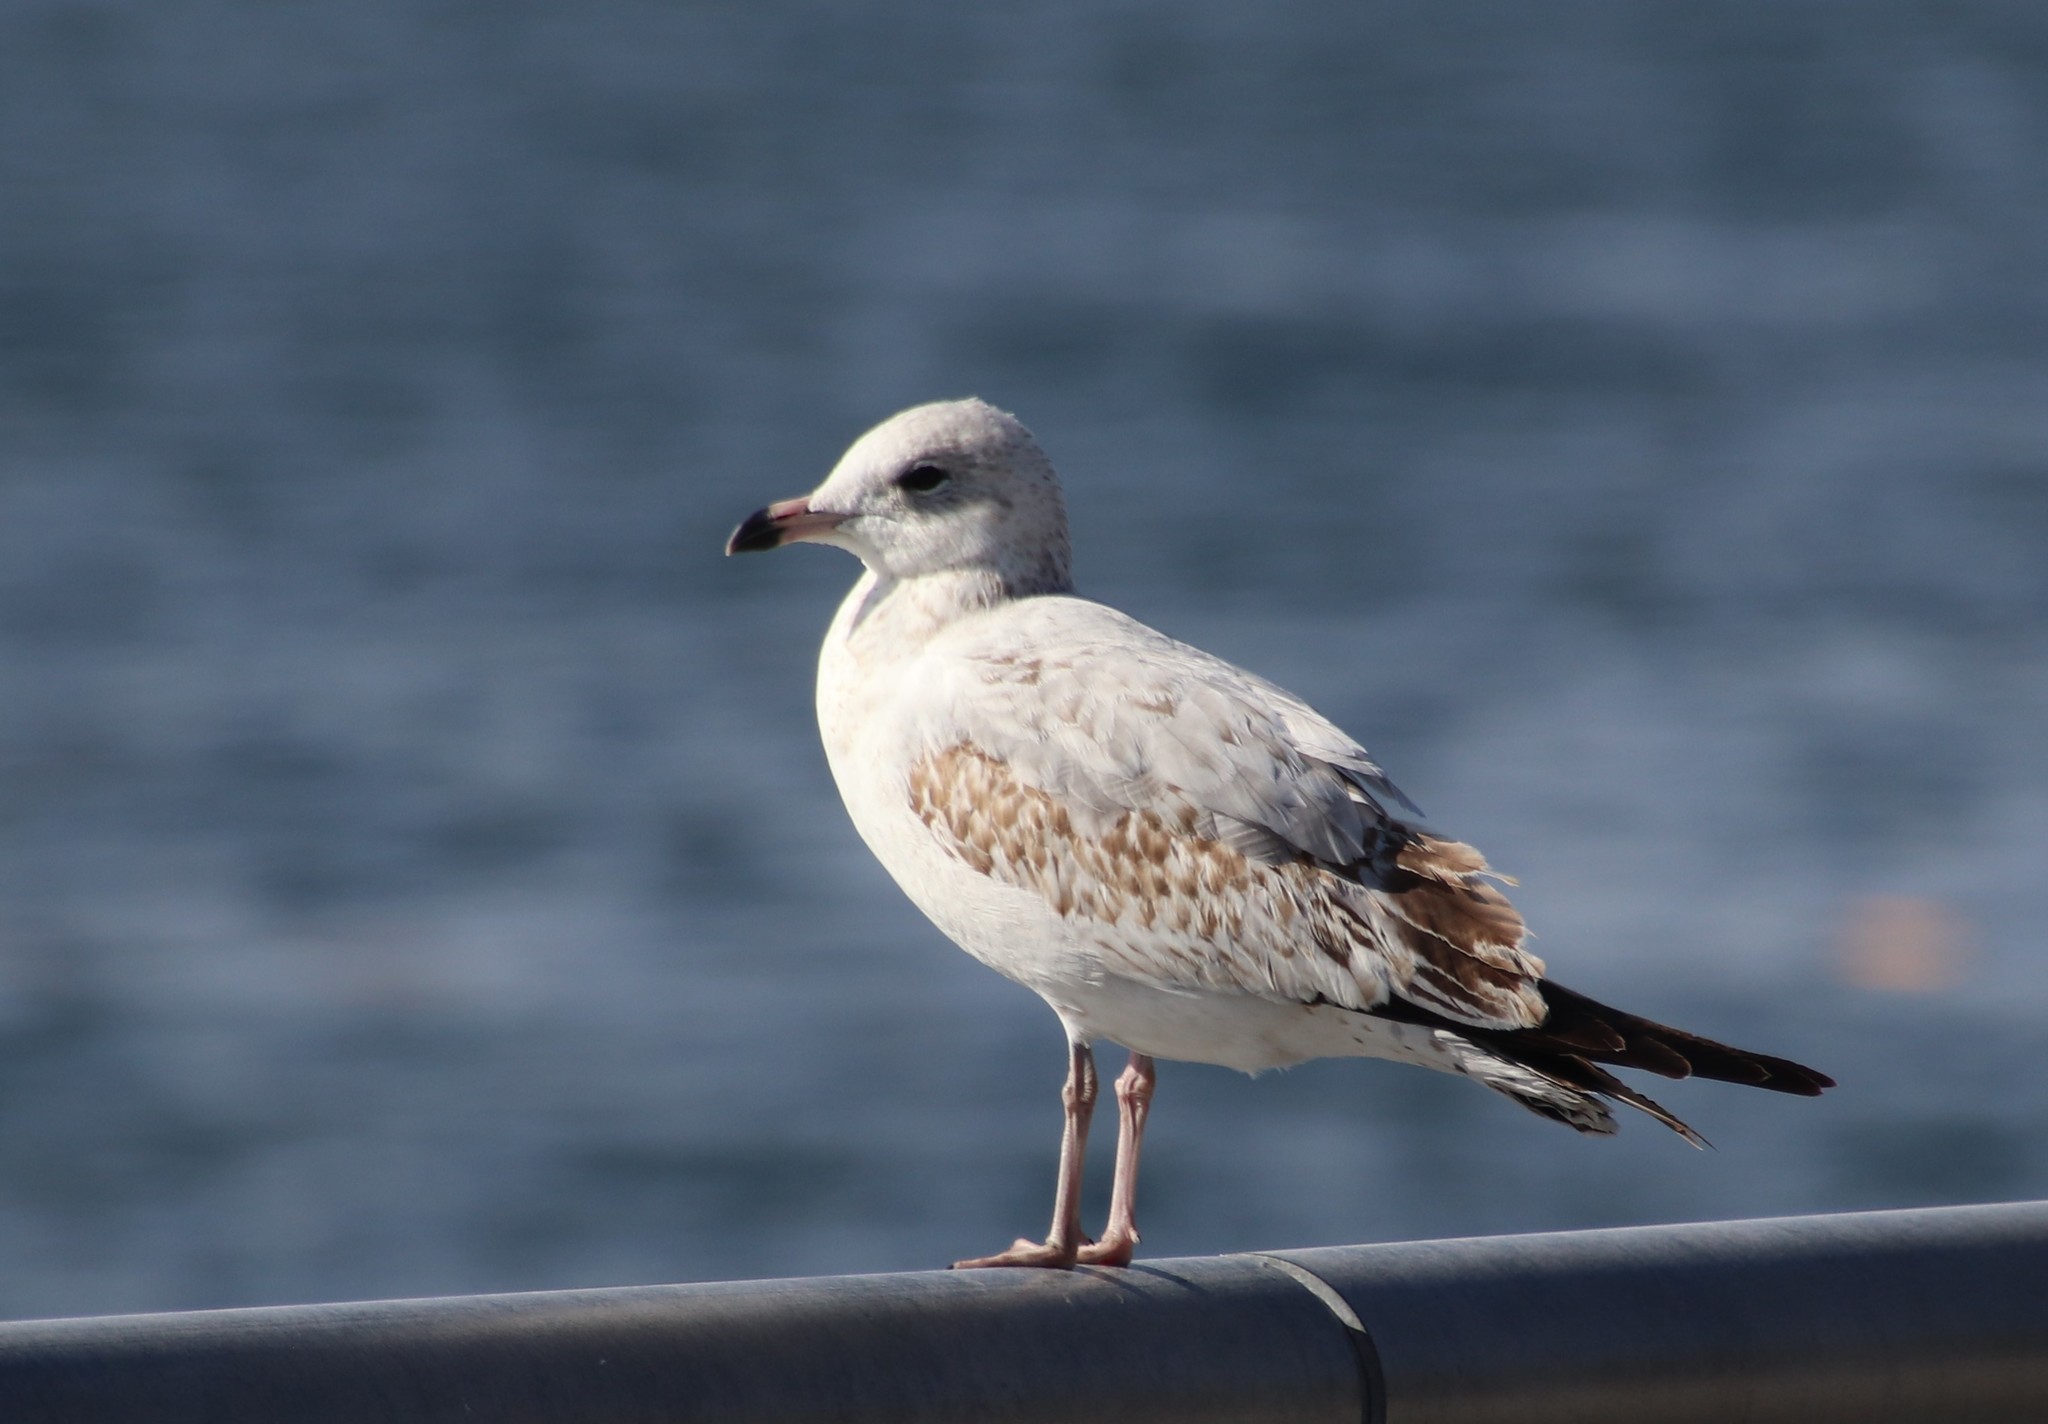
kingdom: Animalia
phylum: Chordata
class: Aves
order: Charadriiformes
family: Laridae
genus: Larus
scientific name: Larus delawarensis
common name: Ring-billed gull
